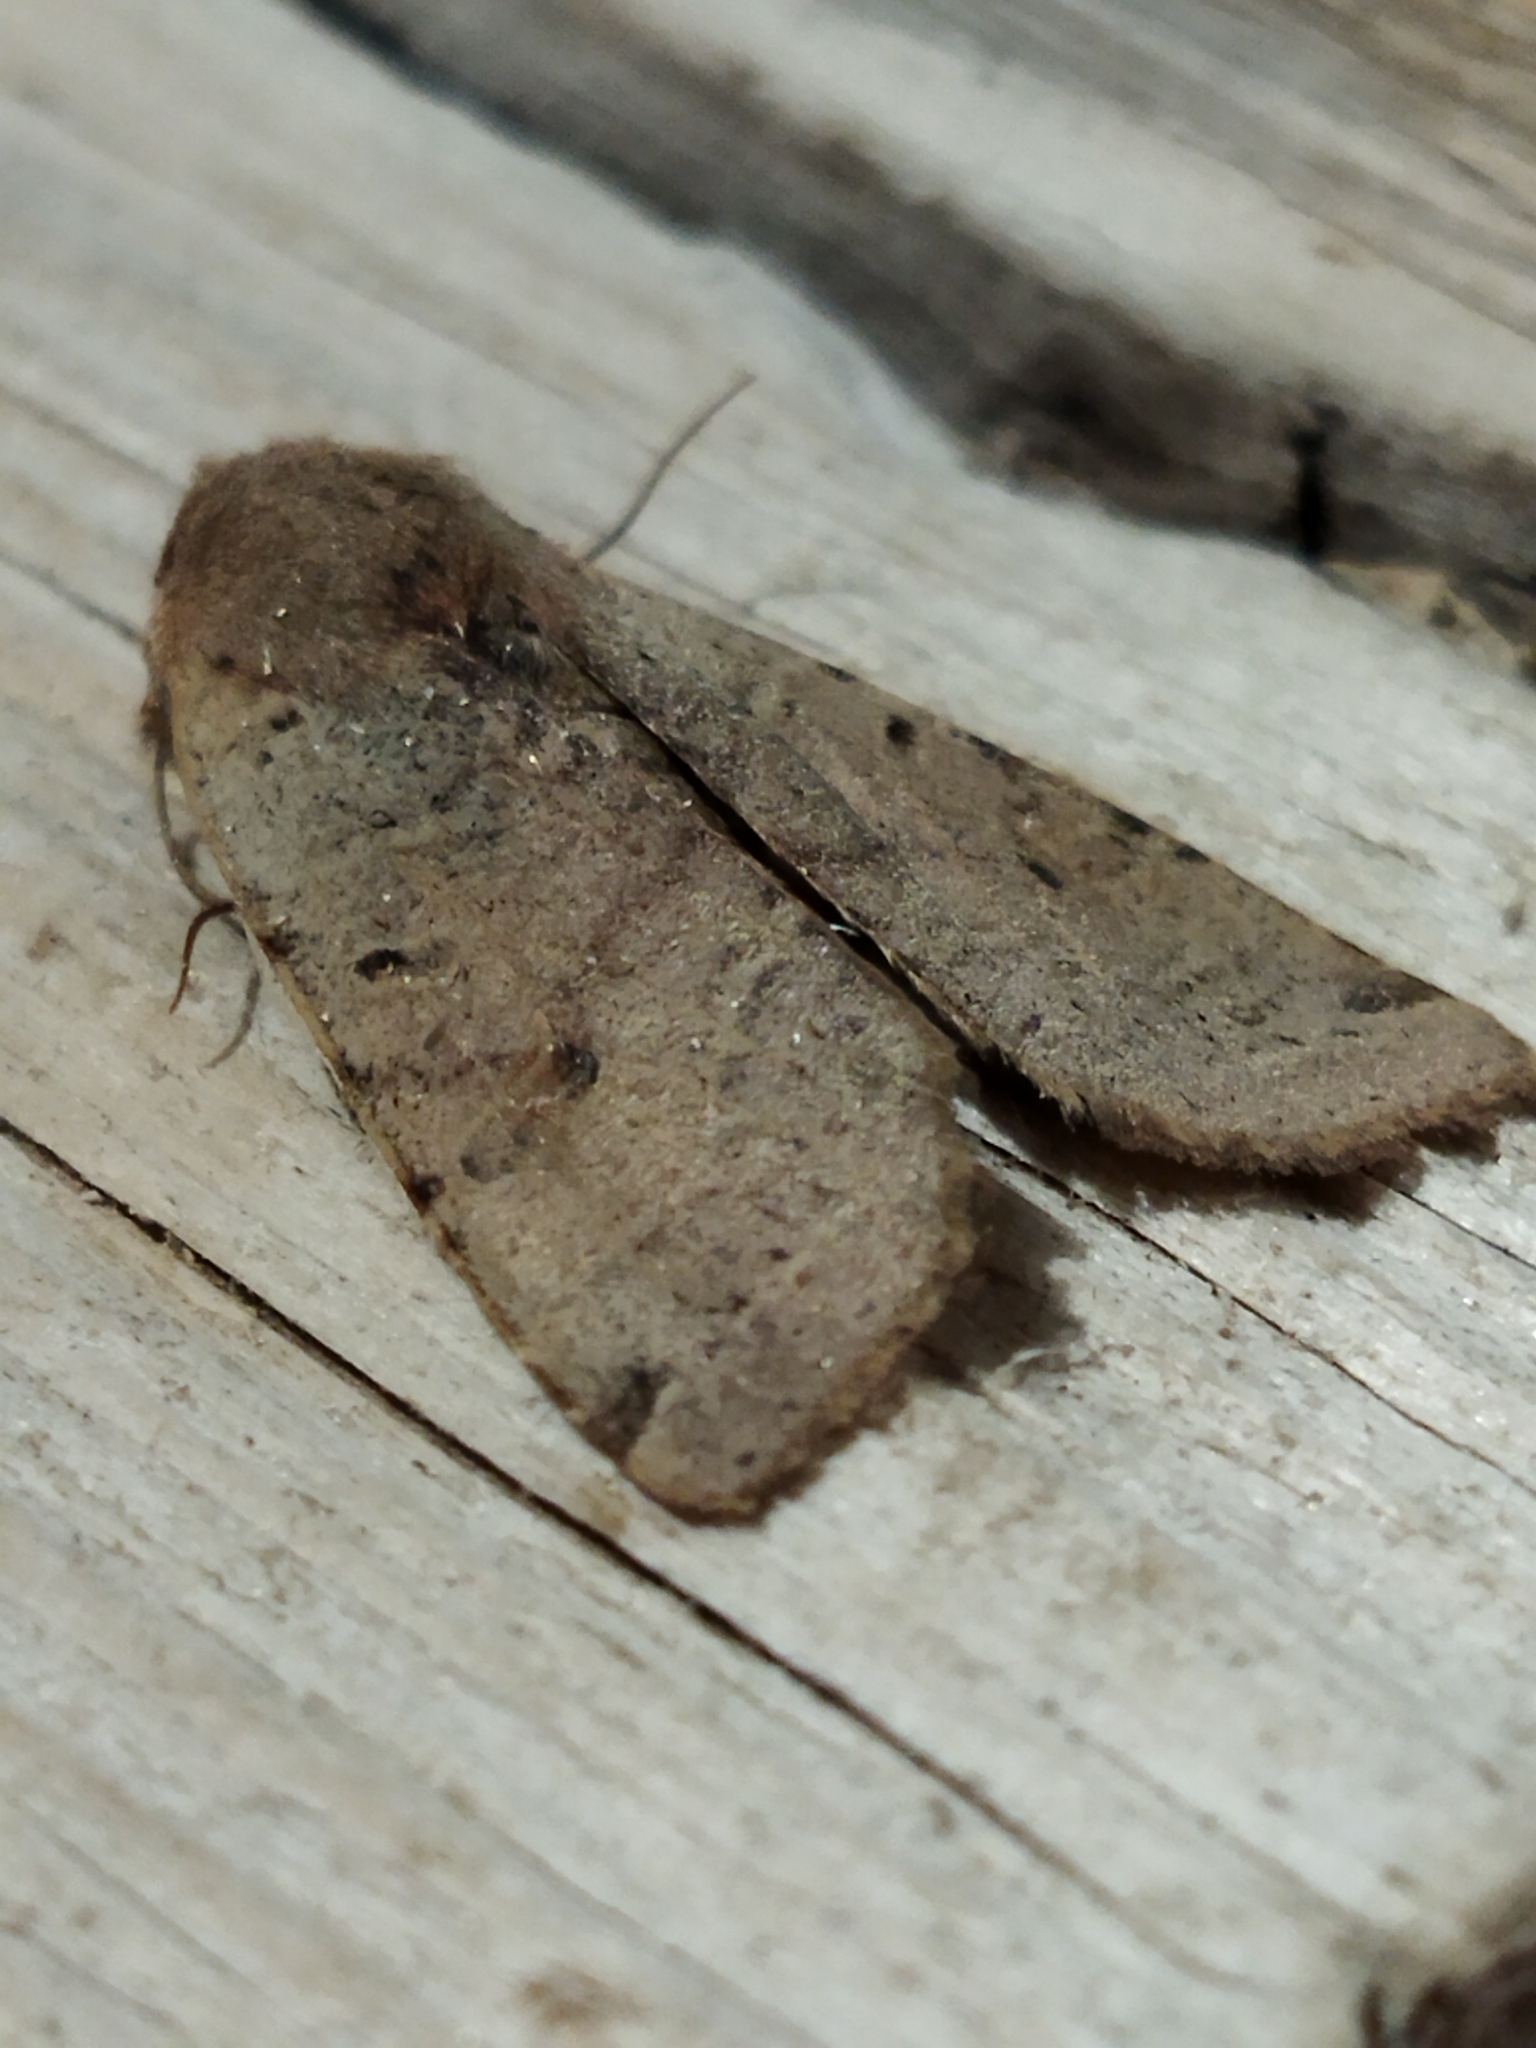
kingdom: Animalia
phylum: Arthropoda
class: Insecta
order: Lepidoptera
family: Noctuidae
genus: Agrochola
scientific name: Agrochola lychnidis
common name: Beaded chestnut
